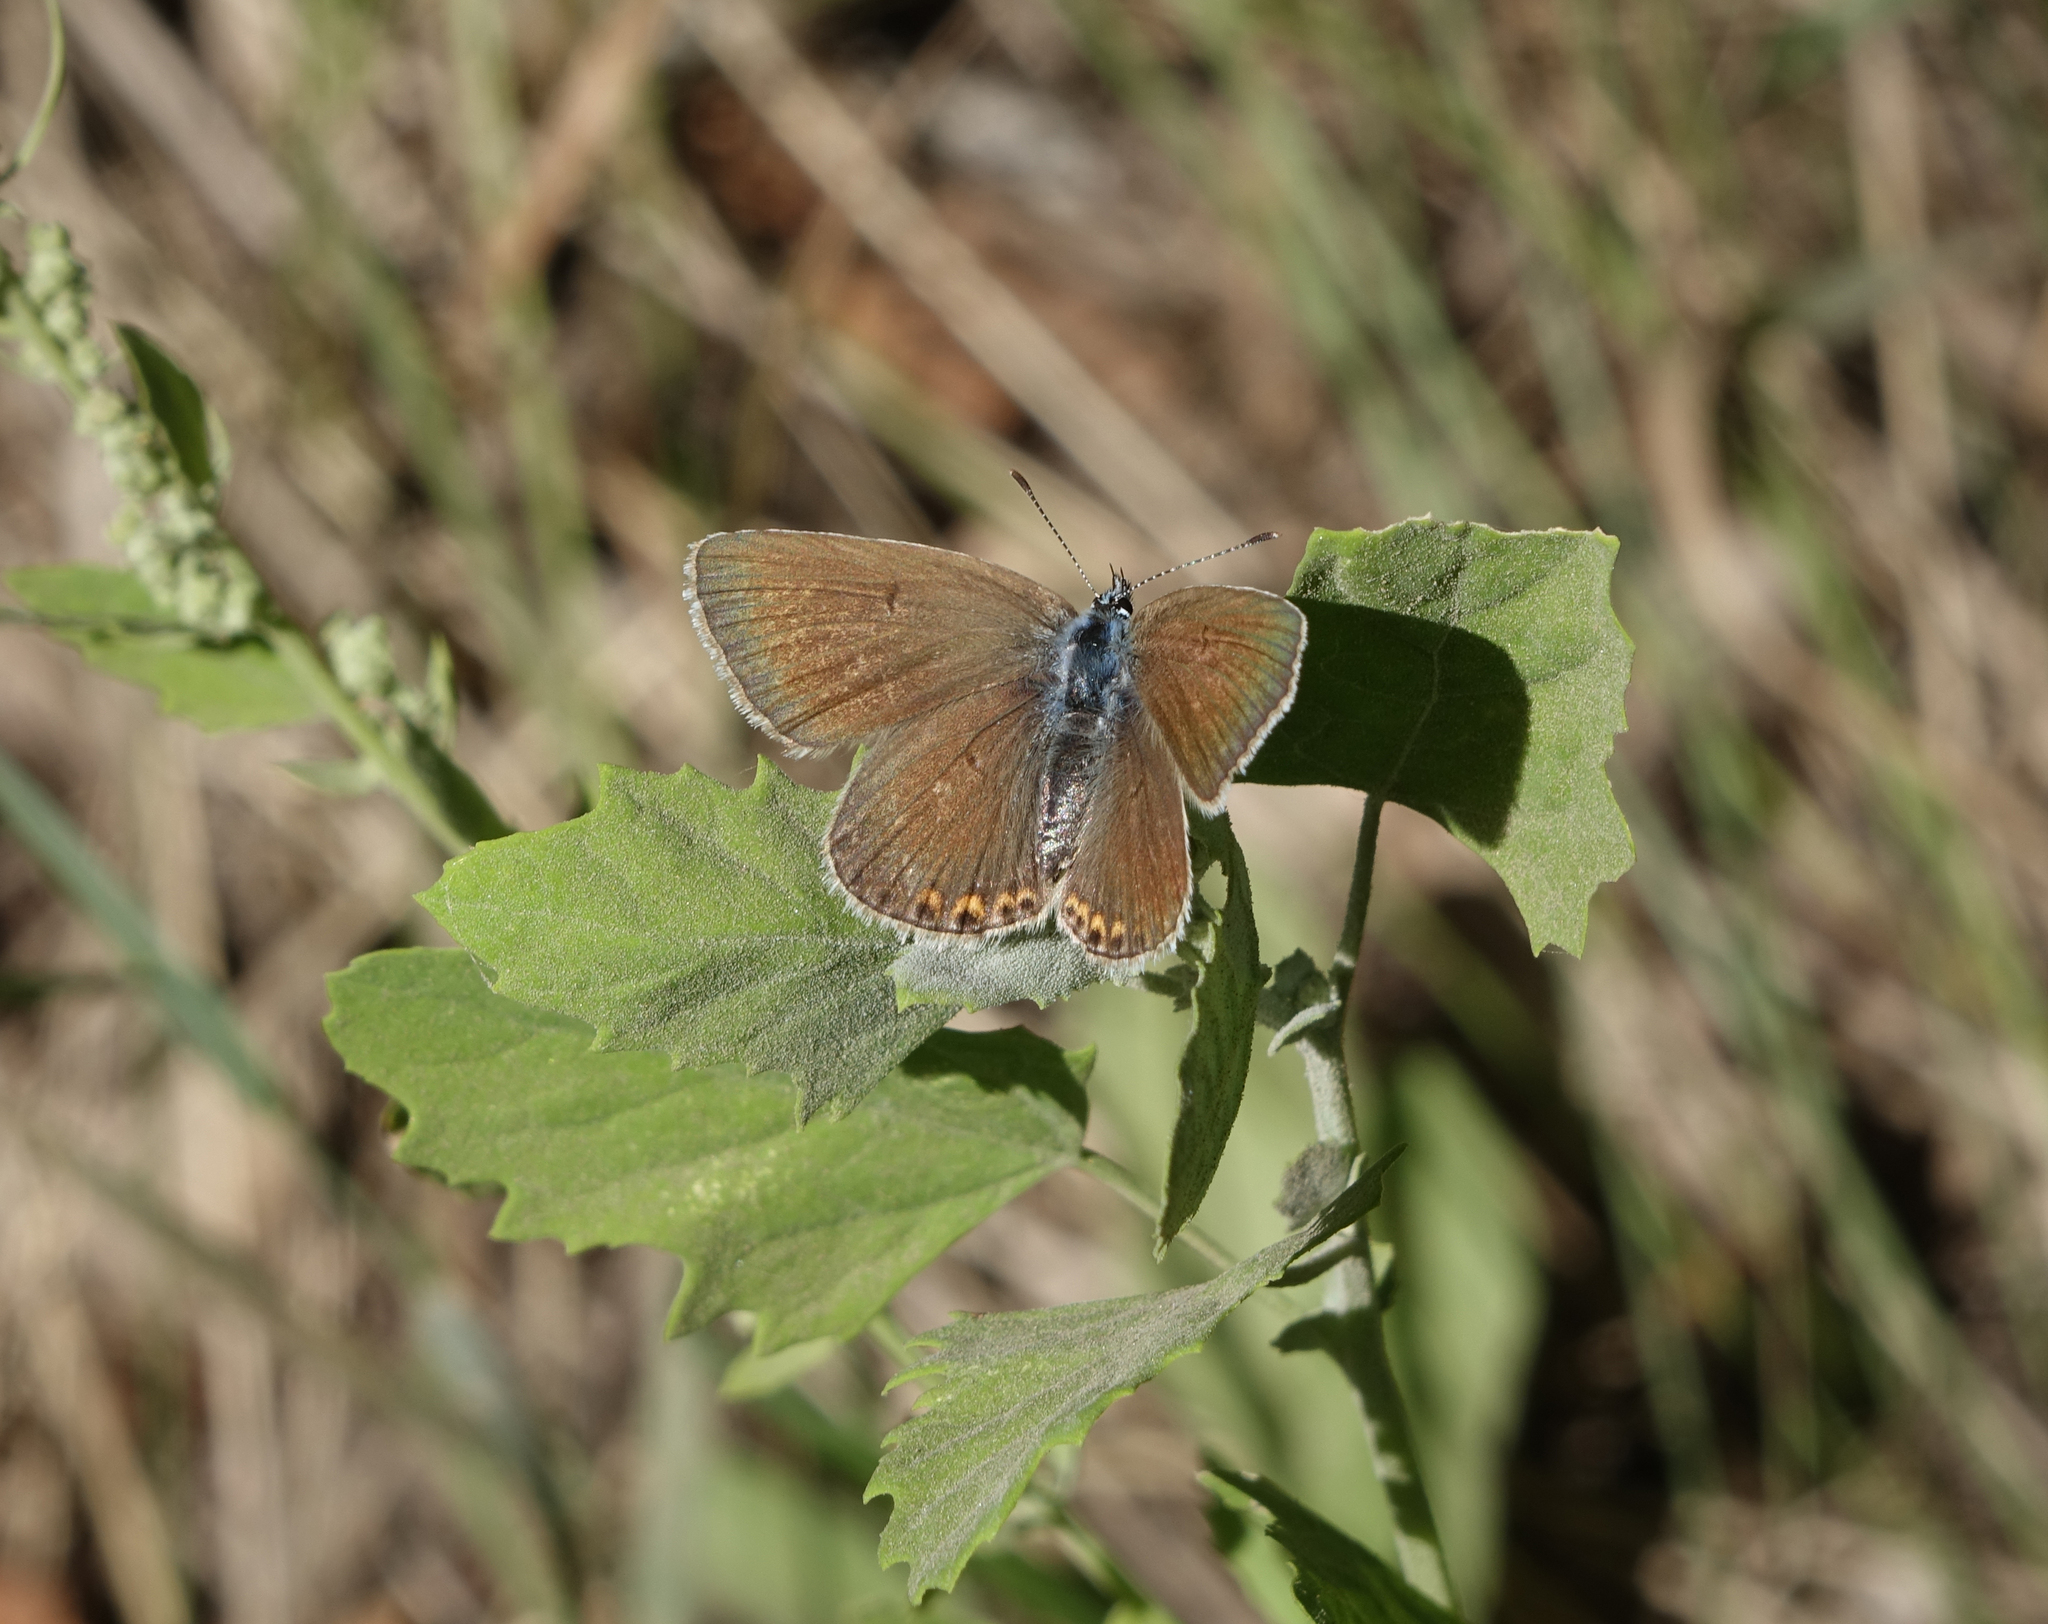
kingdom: Animalia
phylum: Arthropoda
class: Insecta
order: Lepidoptera
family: Lycaenidae
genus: Plebejus
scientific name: Plebejus amanda
